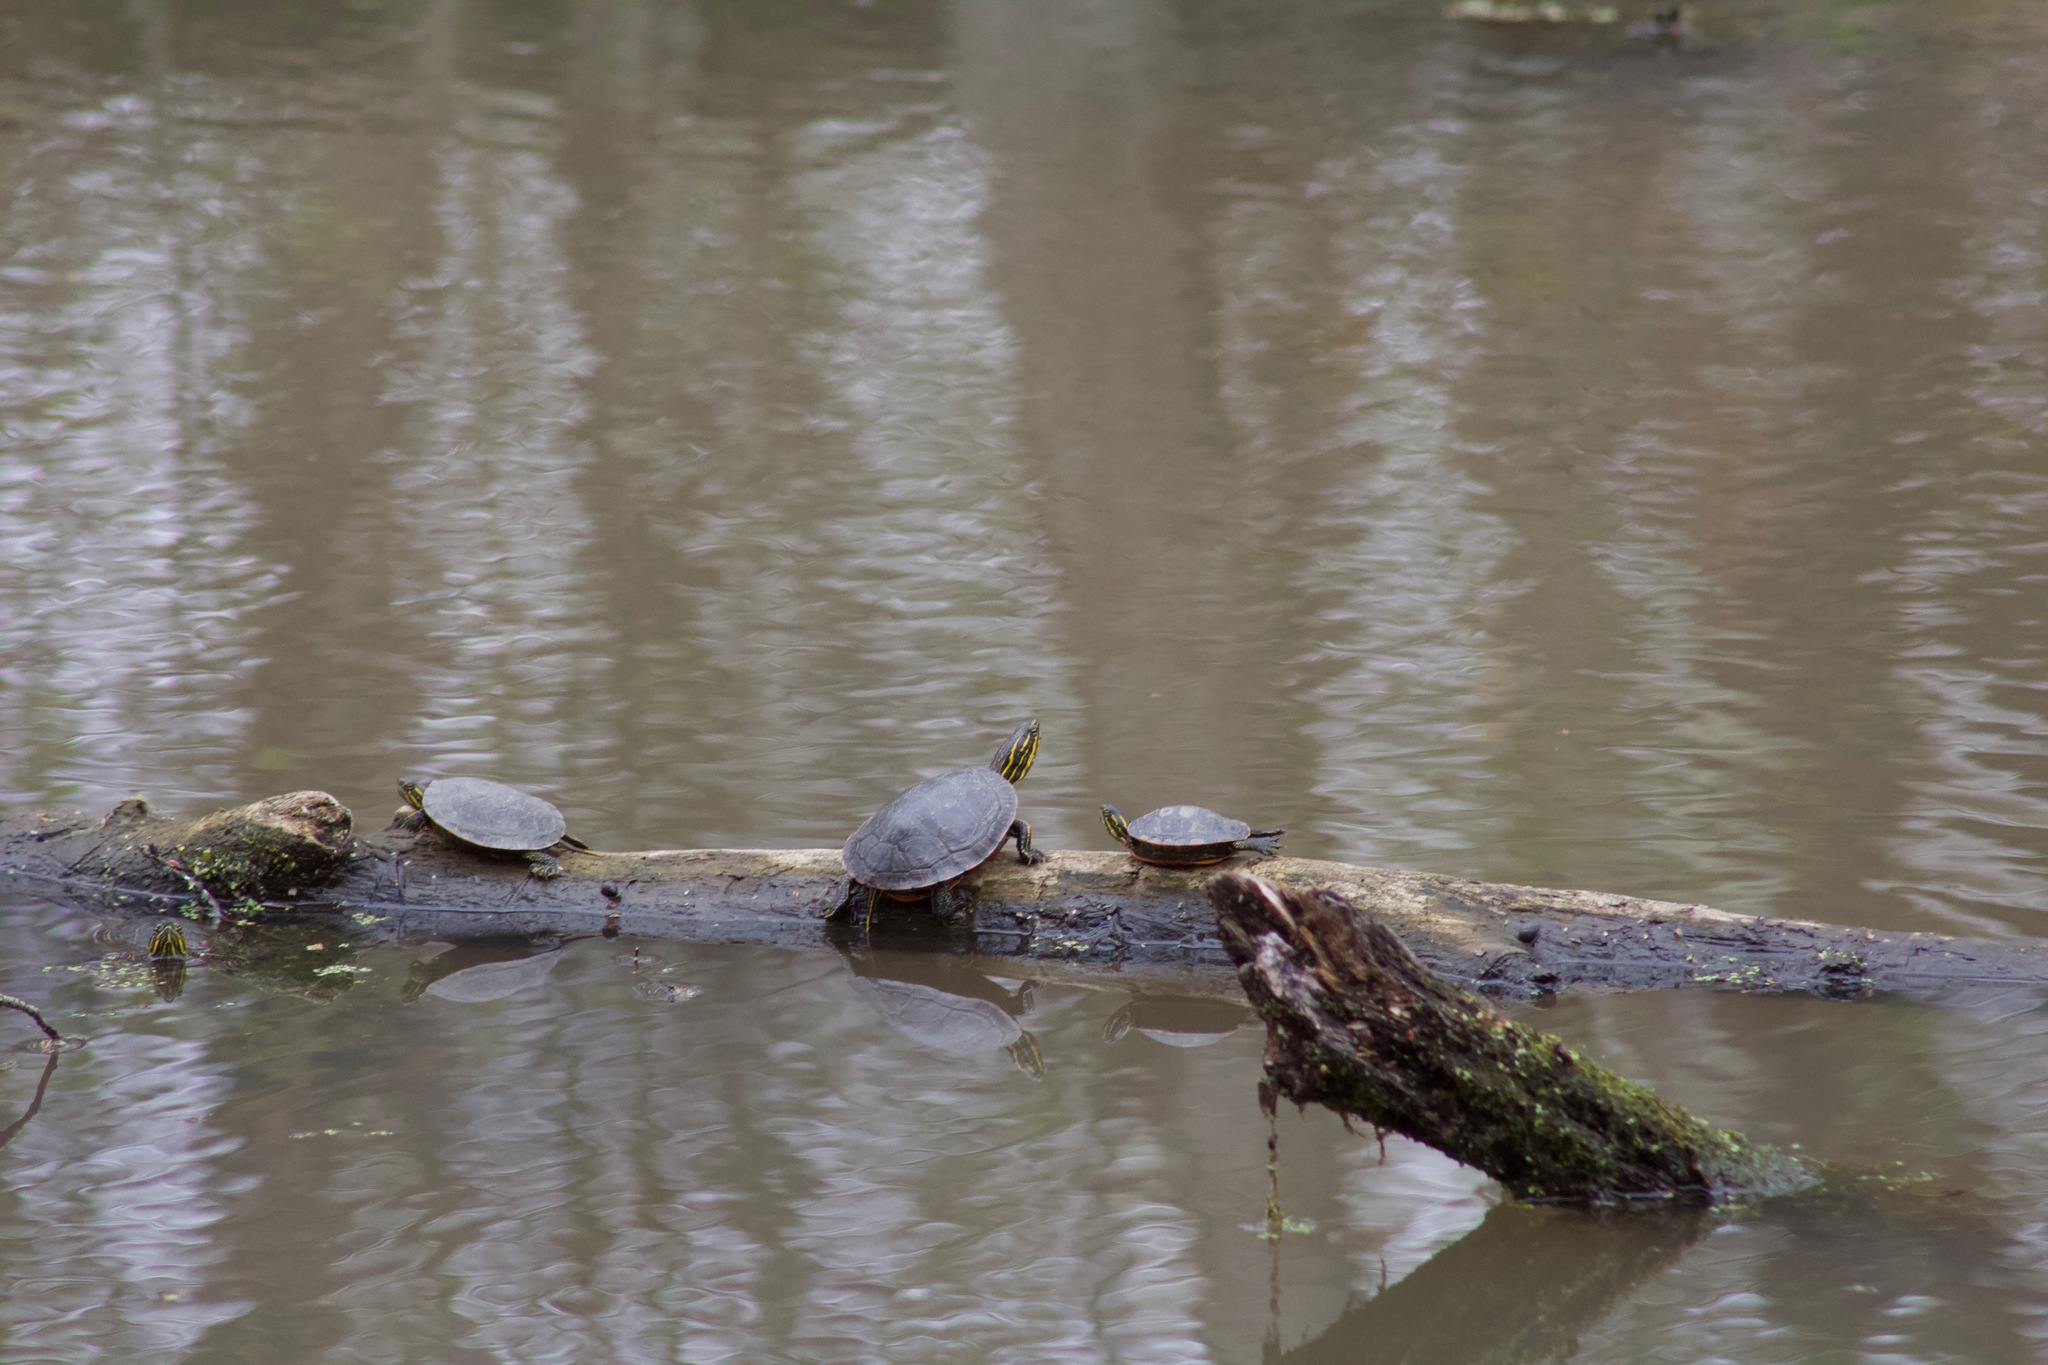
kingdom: Animalia
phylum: Chordata
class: Testudines
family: Emydidae
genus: Chrysemys
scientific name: Chrysemys picta
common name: Painted turtle
